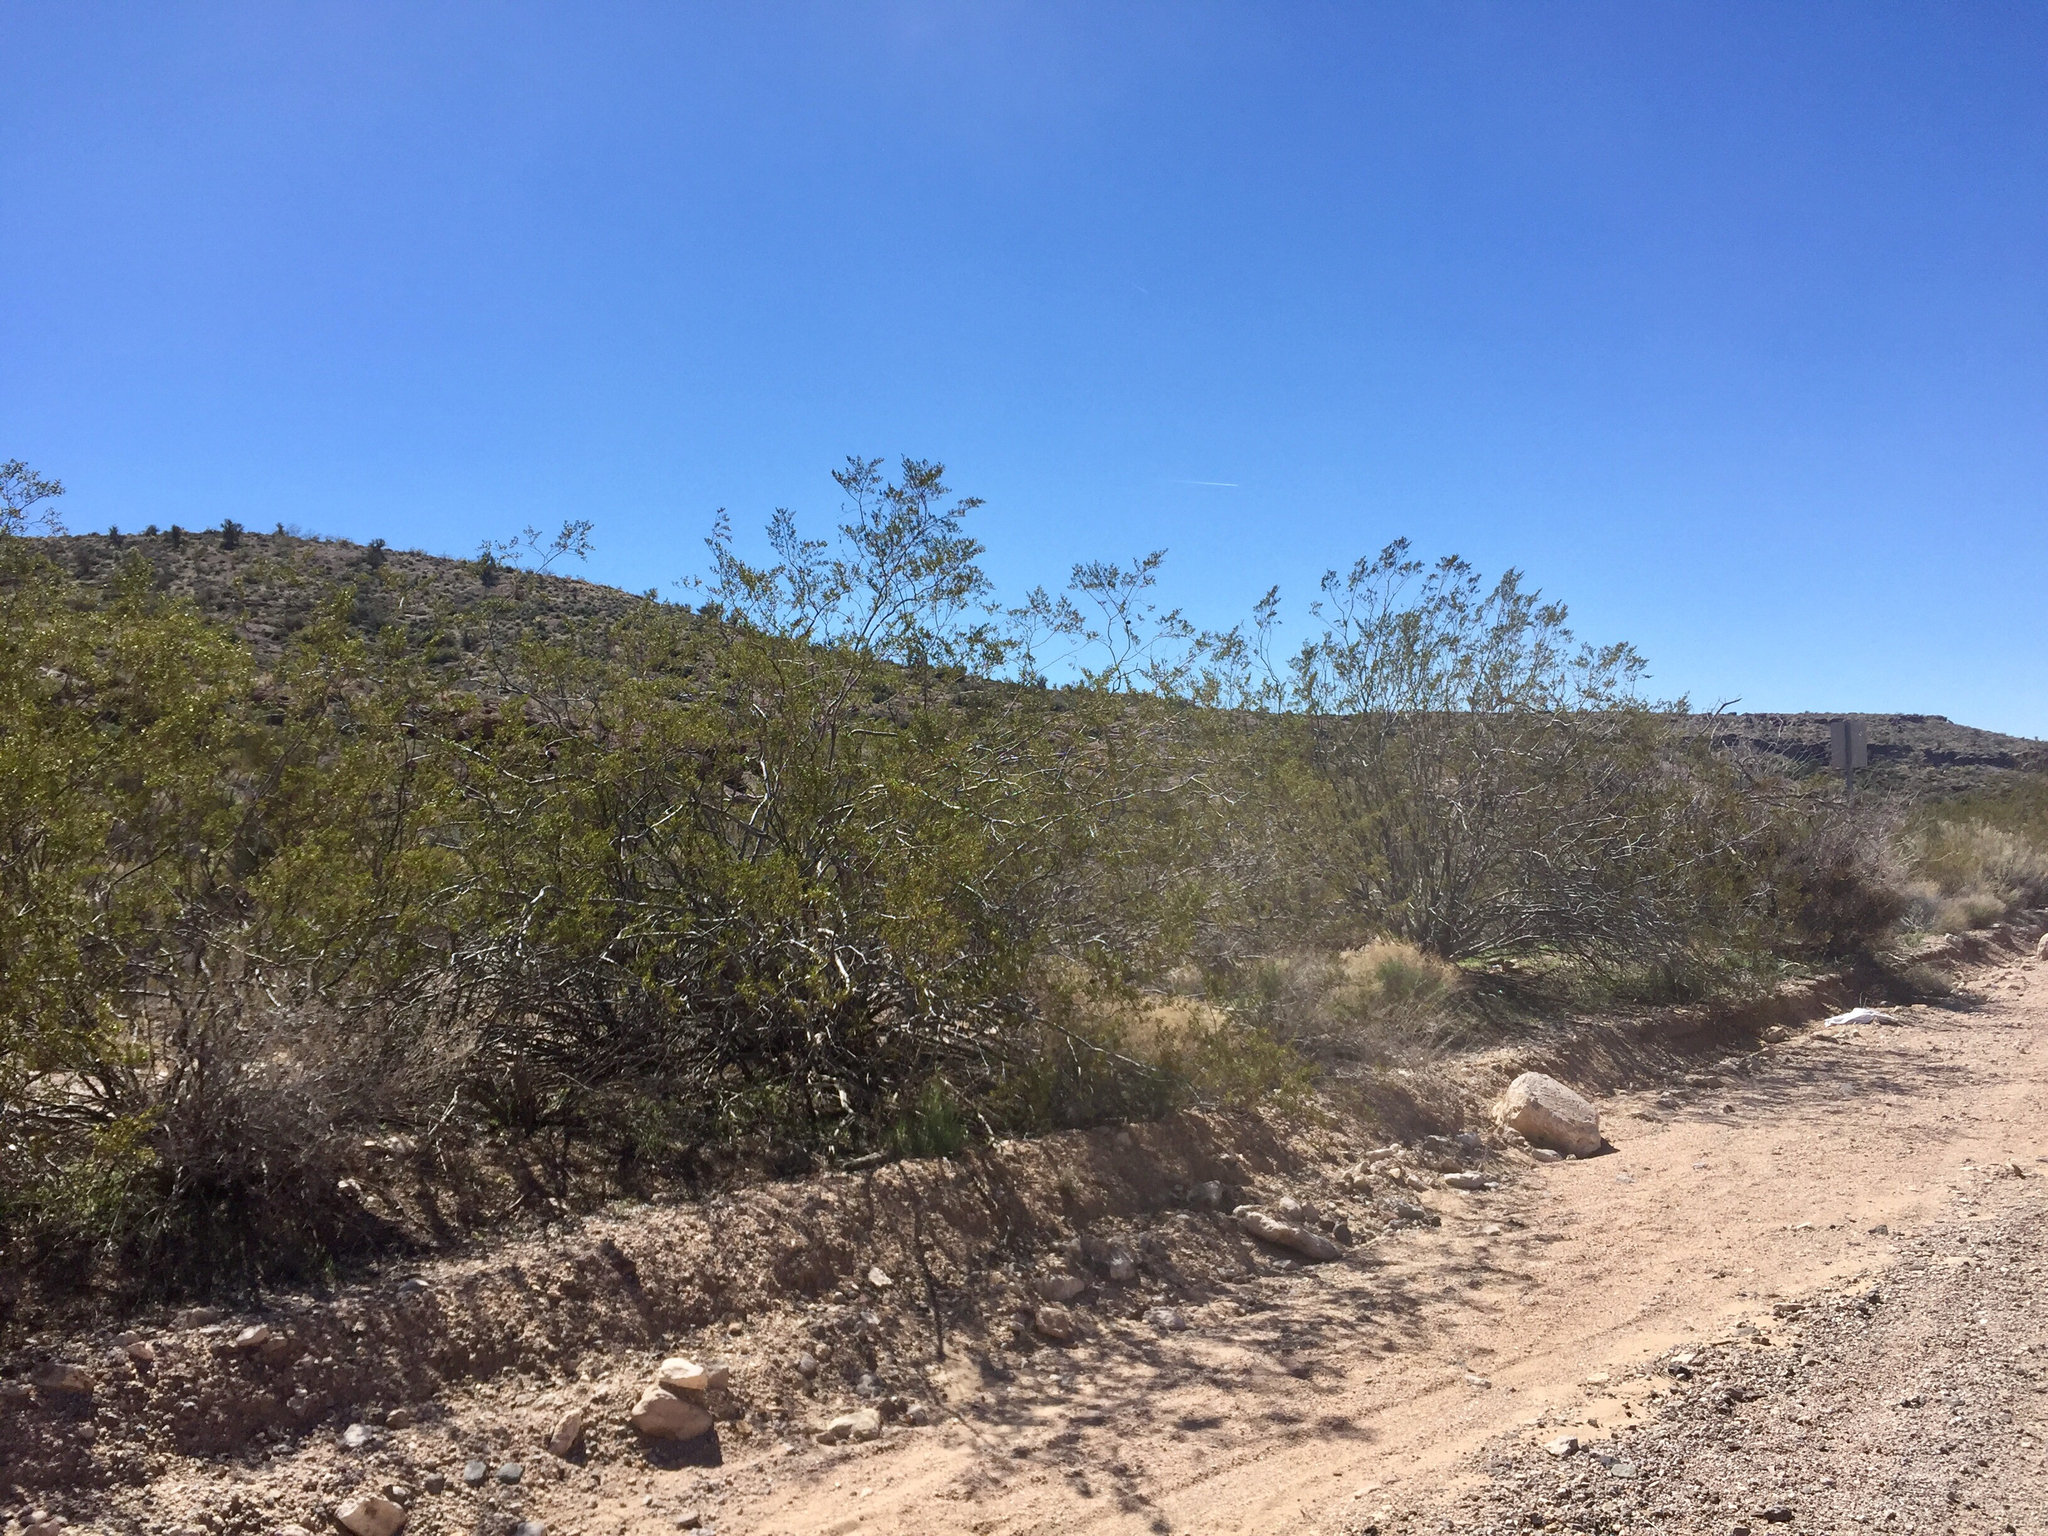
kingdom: Plantae
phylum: Tracheophyta
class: Magnoliopsida
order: Zygophyllales
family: Zygophyllaceae
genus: Larrea
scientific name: Larrea tridentata
